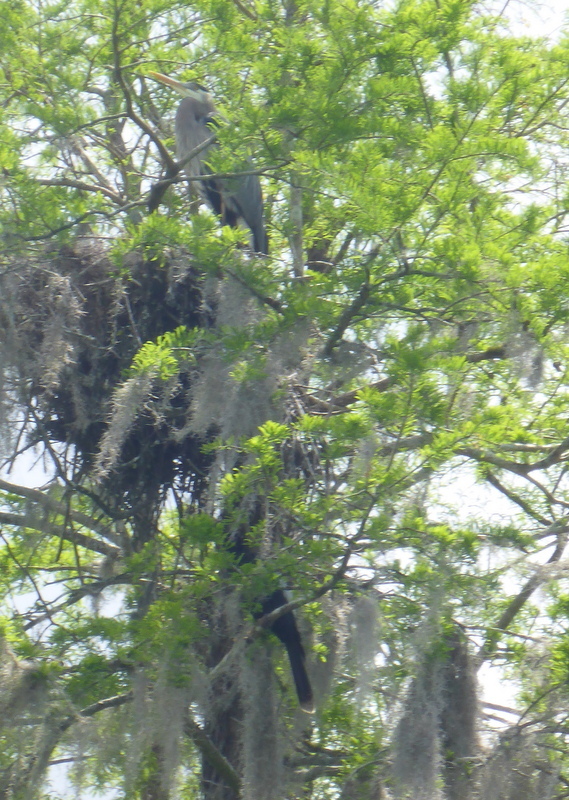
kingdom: Animalia
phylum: Chordata
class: Aves
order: Pelecaniformes
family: Ardeidae
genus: Ardea
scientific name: Ardea herodias
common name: Great blue heron
